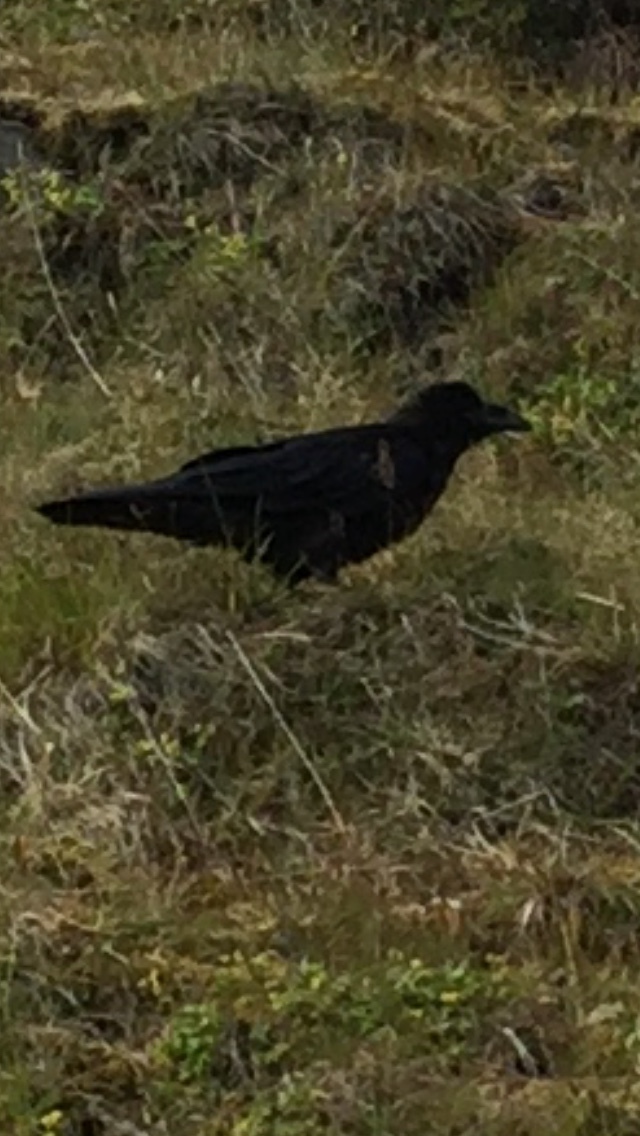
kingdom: Animalia
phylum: Chordata
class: Aves
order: Passeriformes
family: Corvidae
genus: Corvus
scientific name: Corvus corax
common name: Common raven
